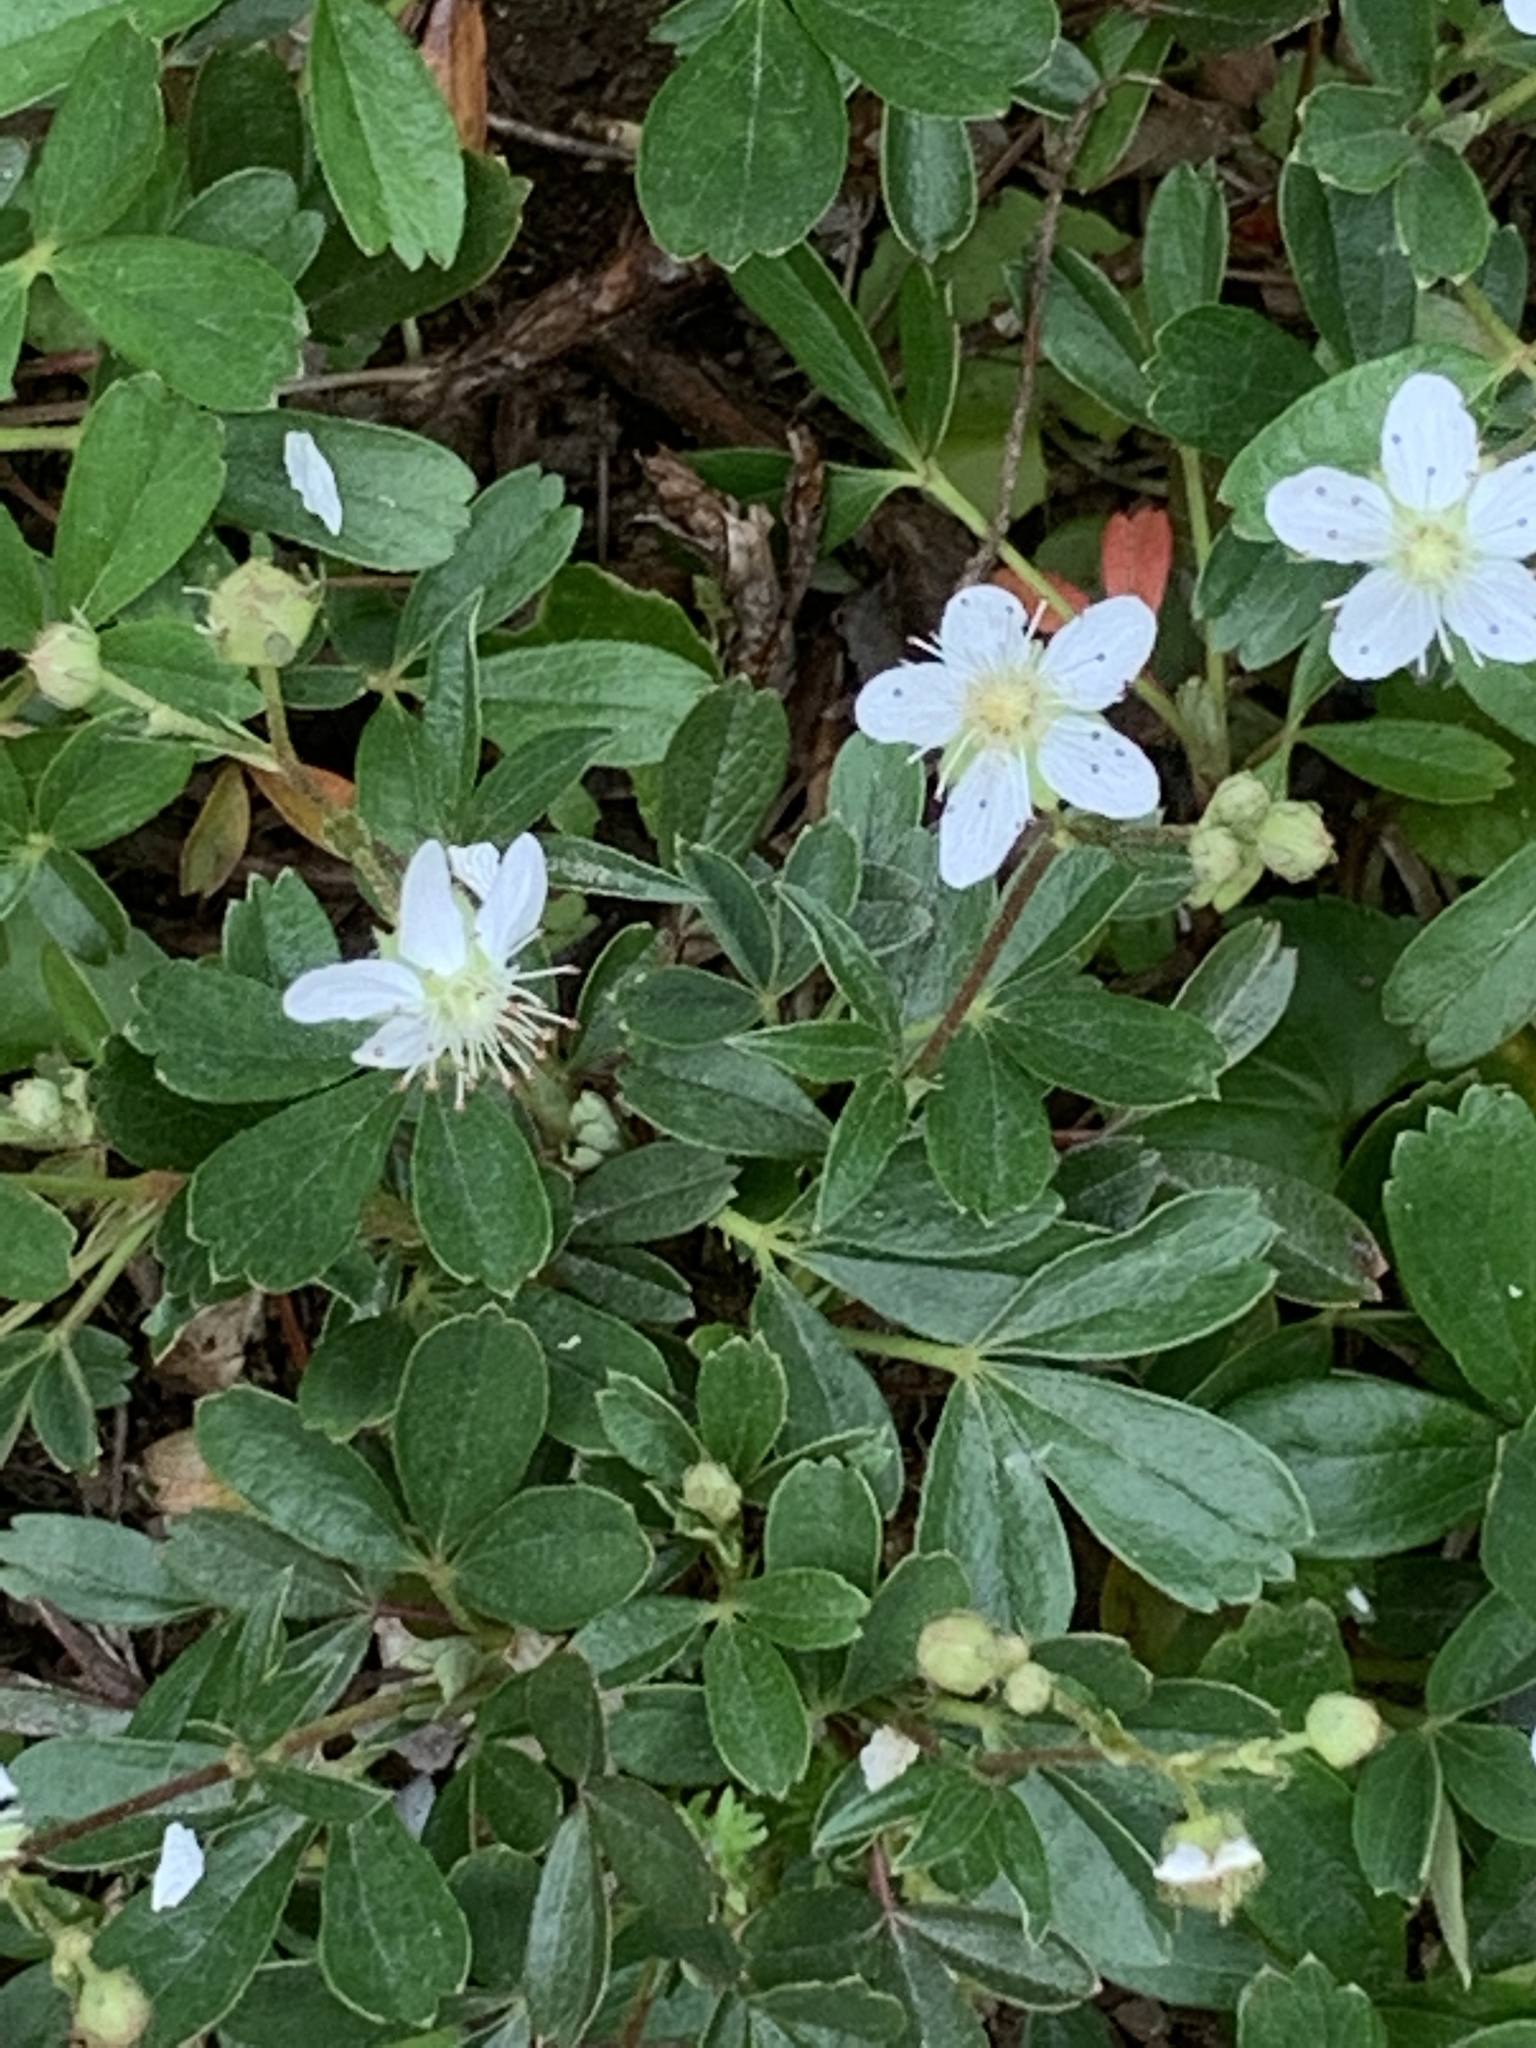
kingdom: Plantae
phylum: Tracheophyta
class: Magnoliopsida
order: Rosales
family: Rosaceae
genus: Sibbaldia
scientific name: Sibbaldia tridentata
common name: Three-toothed cinquefoil
